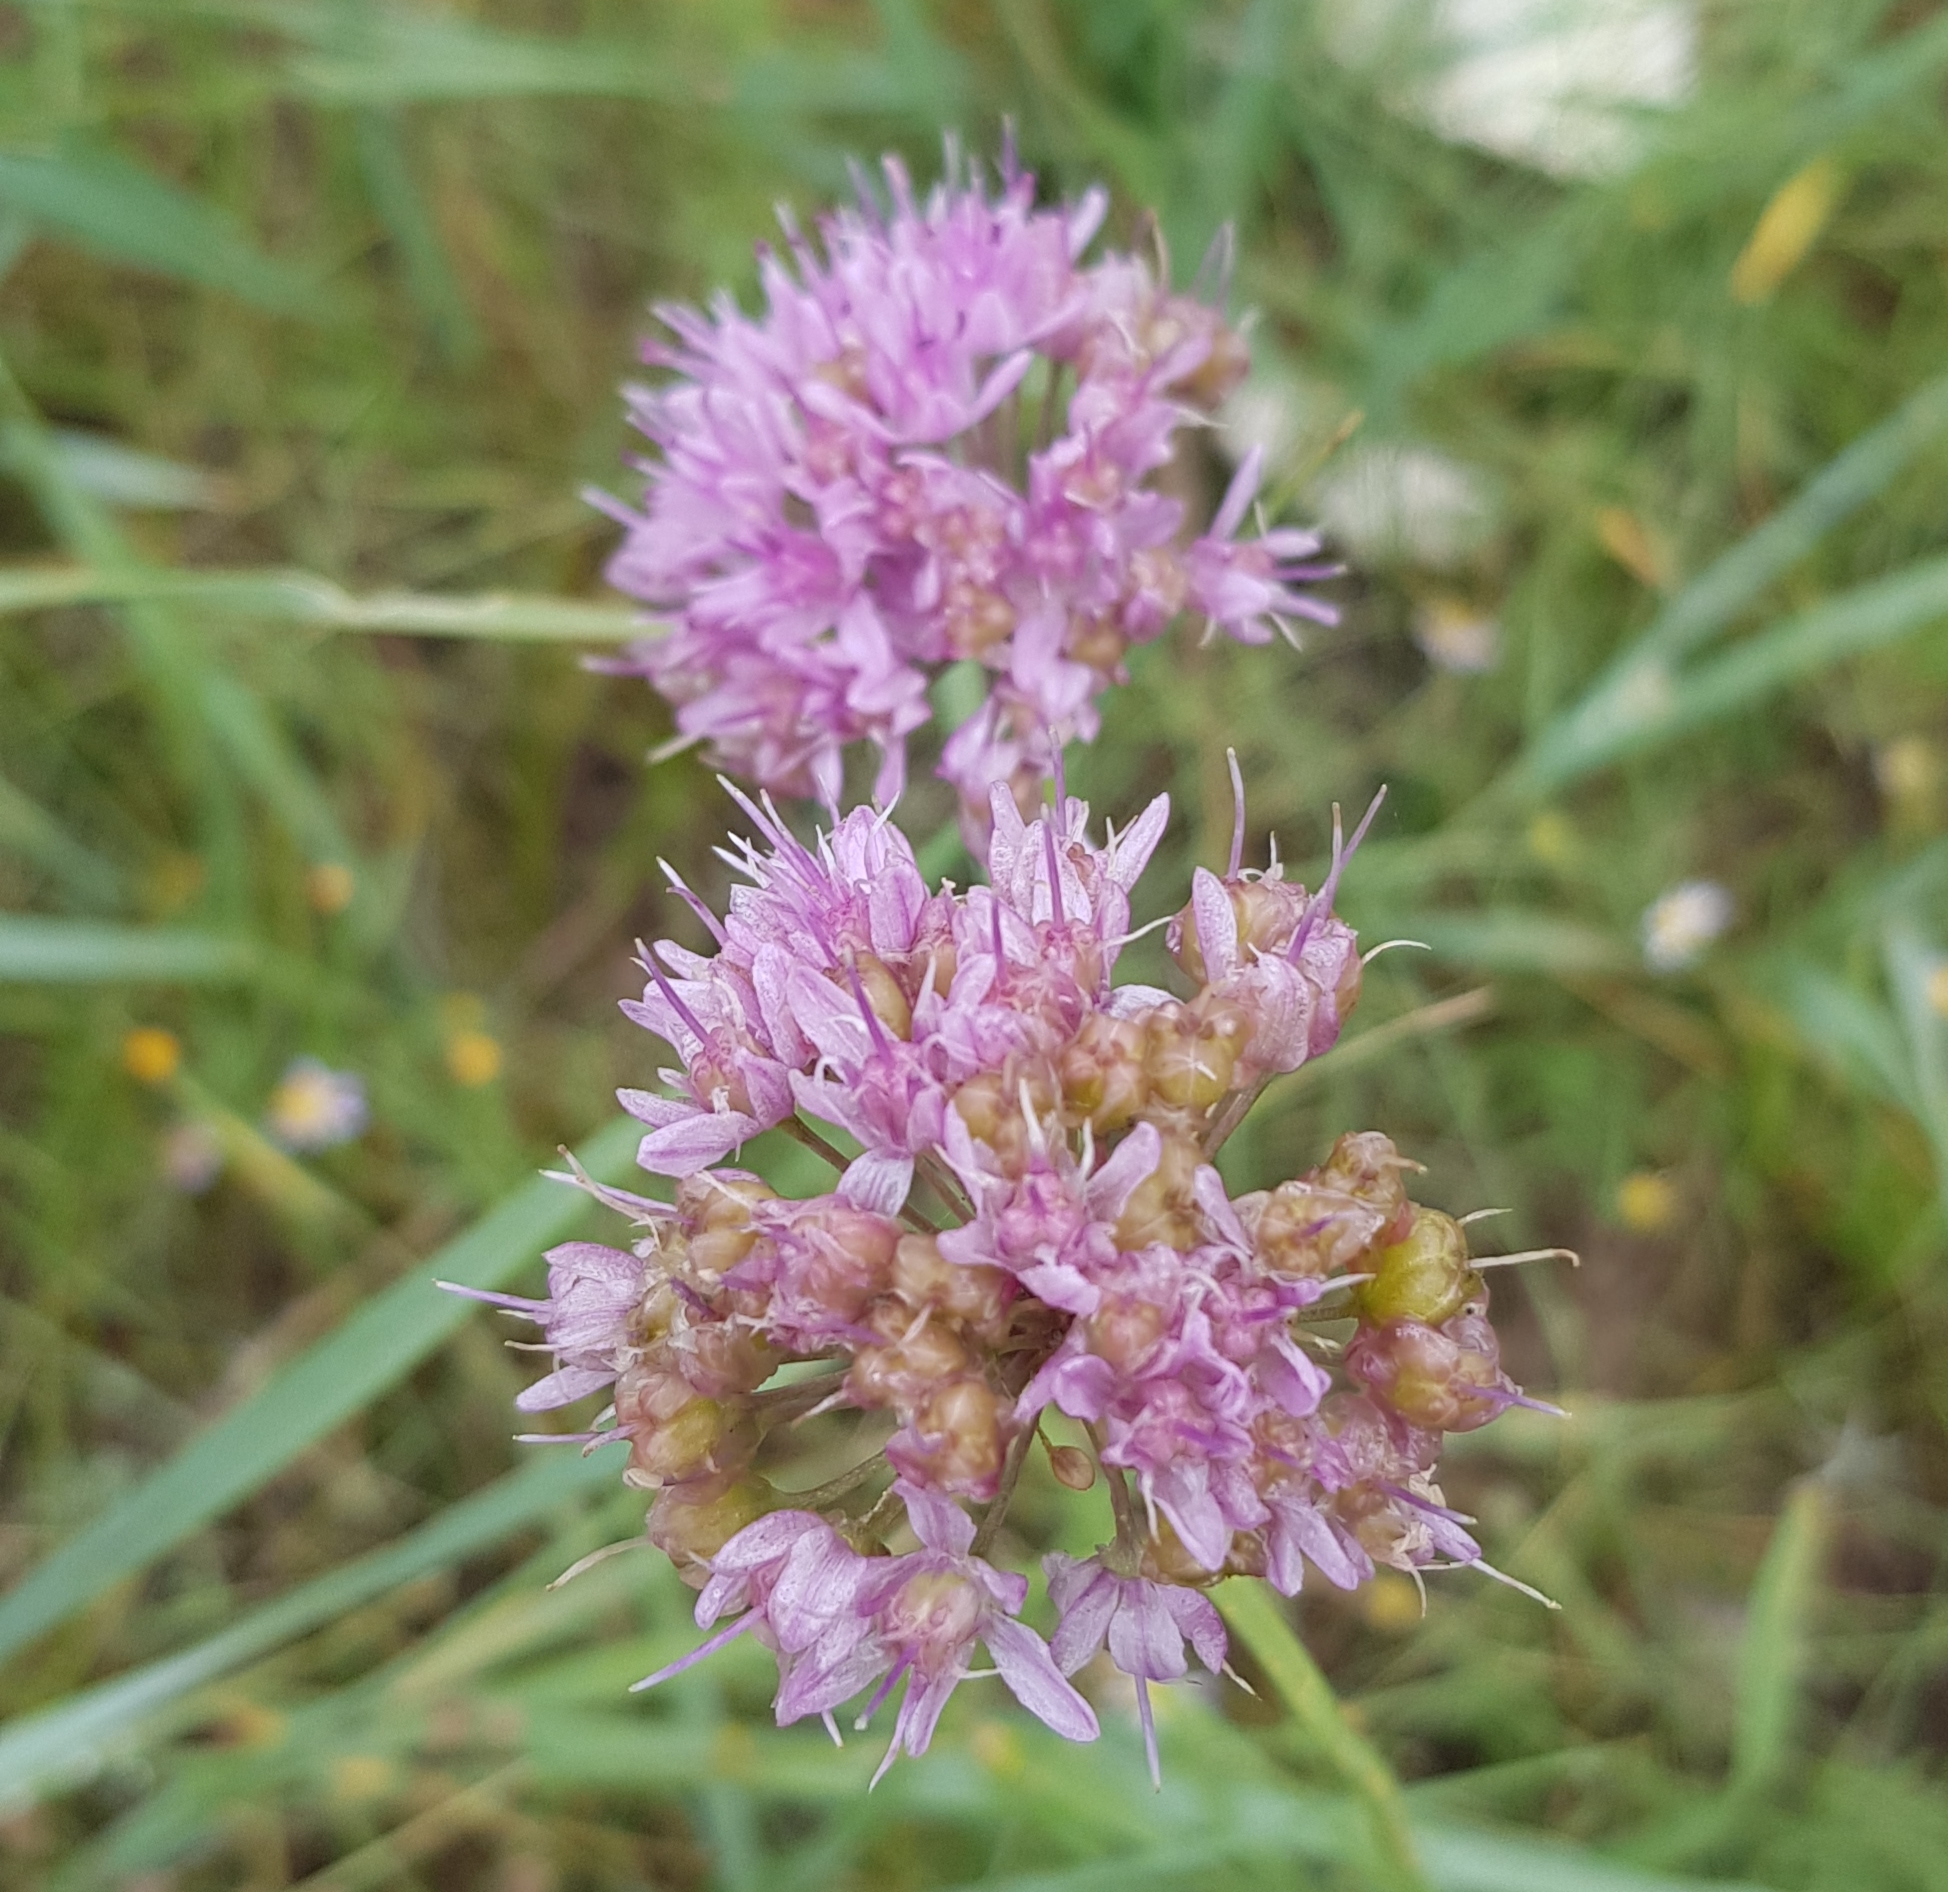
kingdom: Plantae
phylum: Tracheophyta
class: Liliopsida
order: Asparagales
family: Amaryllidaceae
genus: Allium
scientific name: Allium senescens
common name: German garlic
